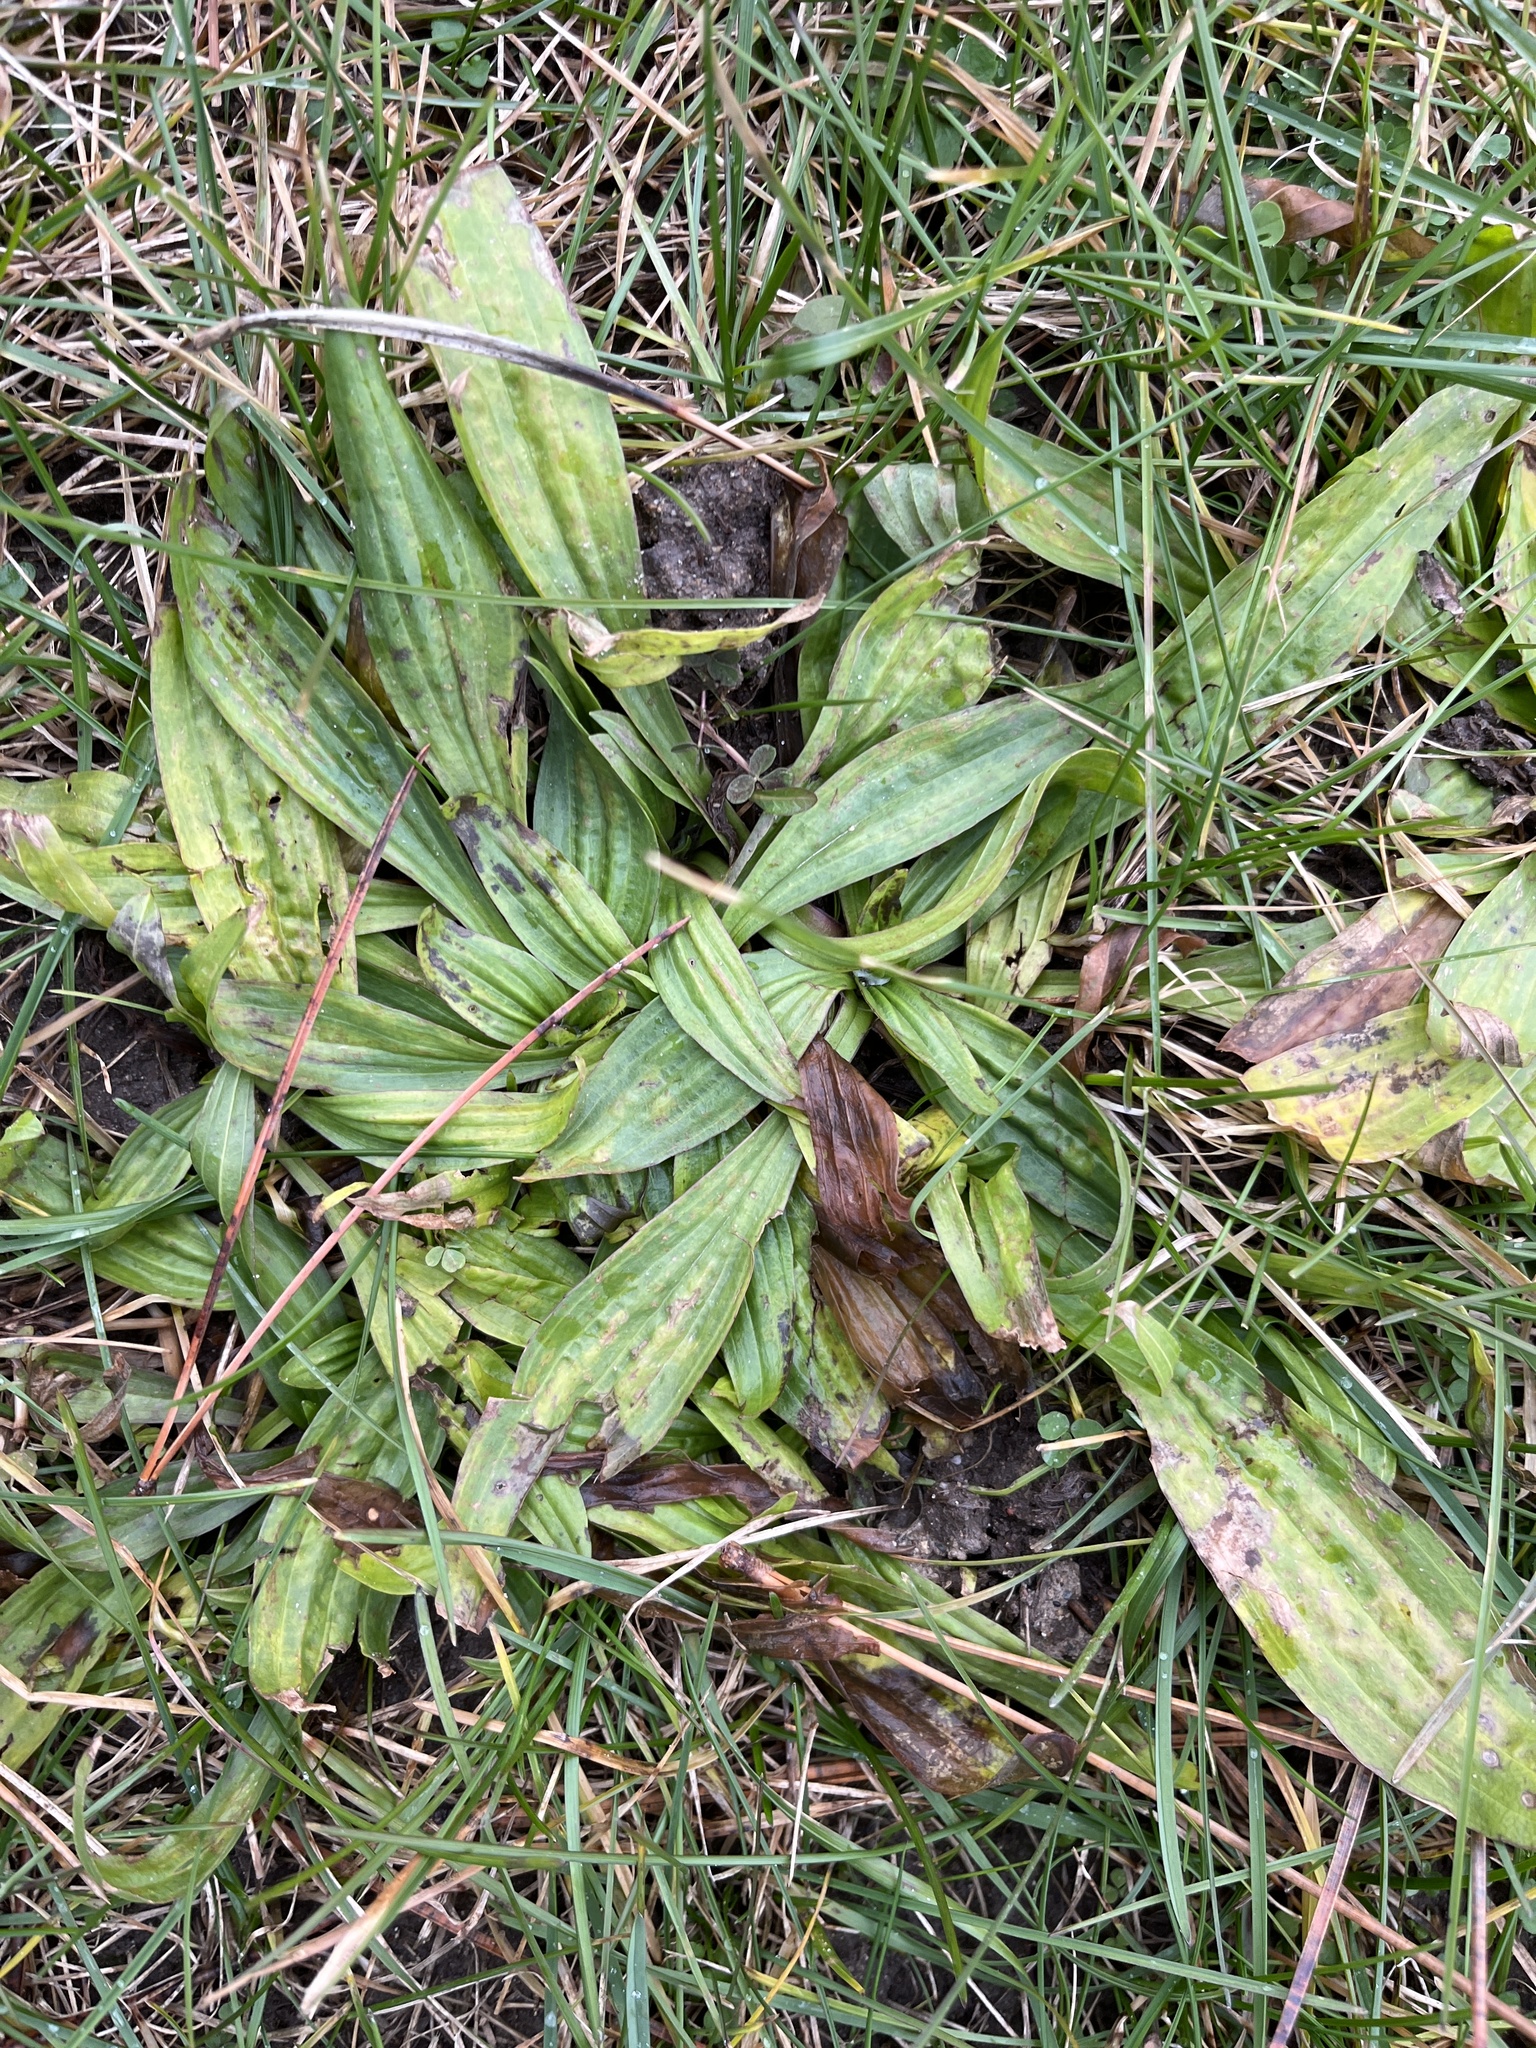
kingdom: Plantae
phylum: Tracheophyta
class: Magnoliopsida
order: Lamiales
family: Plantaginaceae
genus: Plantago
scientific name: Plantago lanceolata
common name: Ribwort plantain
